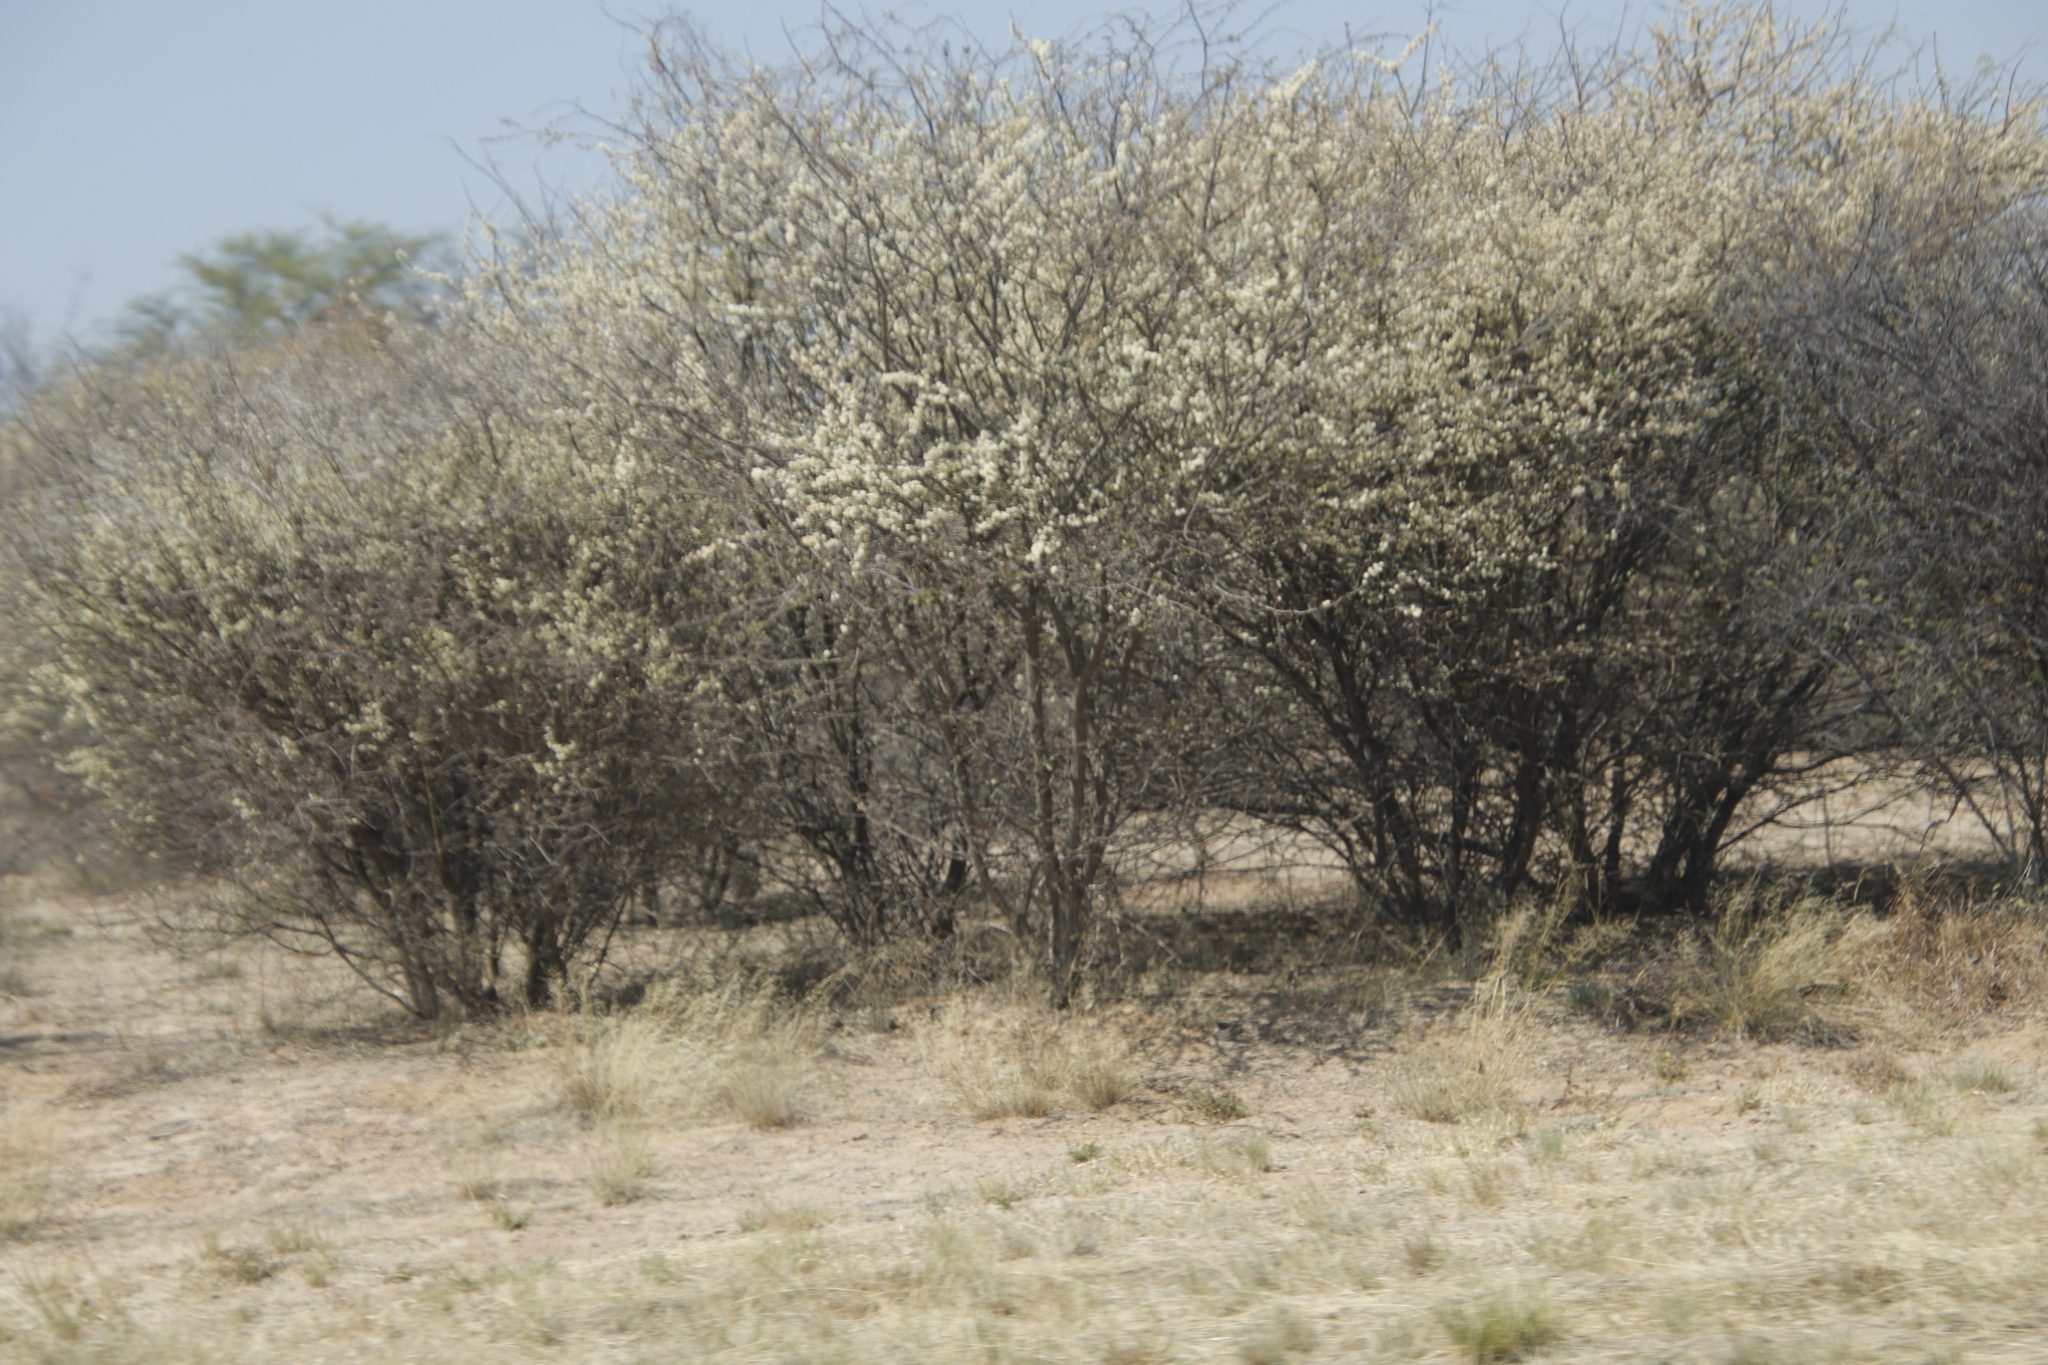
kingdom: Plantae
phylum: Tracheophyta
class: Magnoliopsida
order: Fabales
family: Fabaceae
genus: Senegalia
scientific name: Senegalia mellifera
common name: Hookthorn
